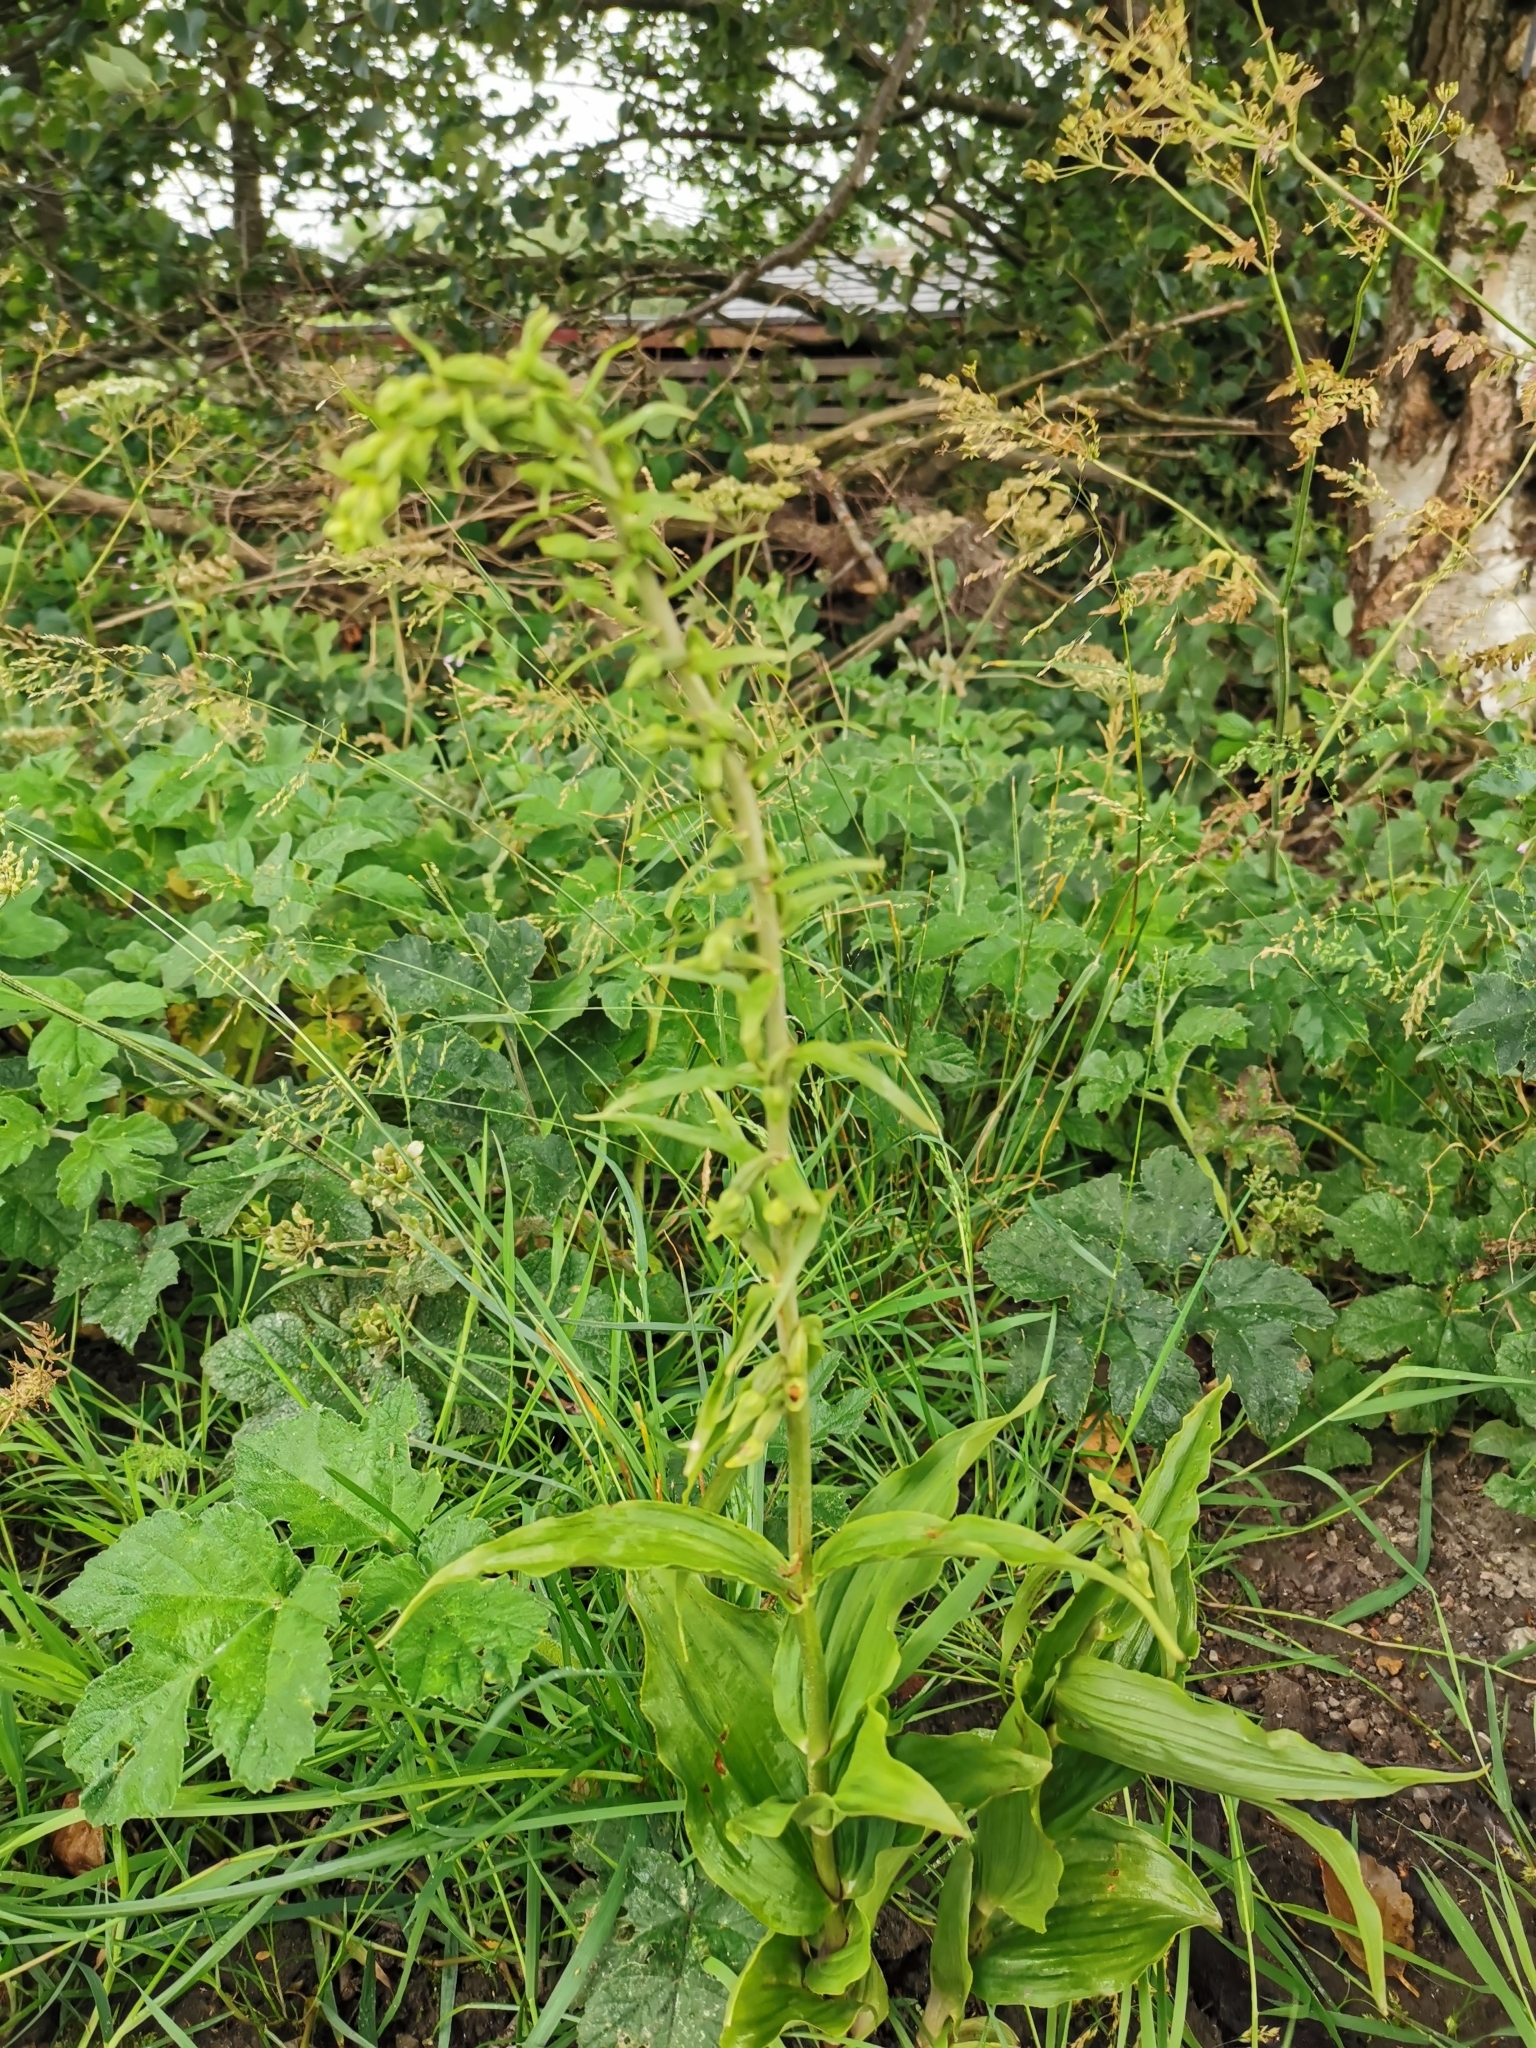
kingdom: Plantae
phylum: Tracheophyta
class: Liliopsida
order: Asparagales
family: Orchidaceae
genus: Epipactis
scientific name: Epipactis helleborine
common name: Broad-leaved helleborine
